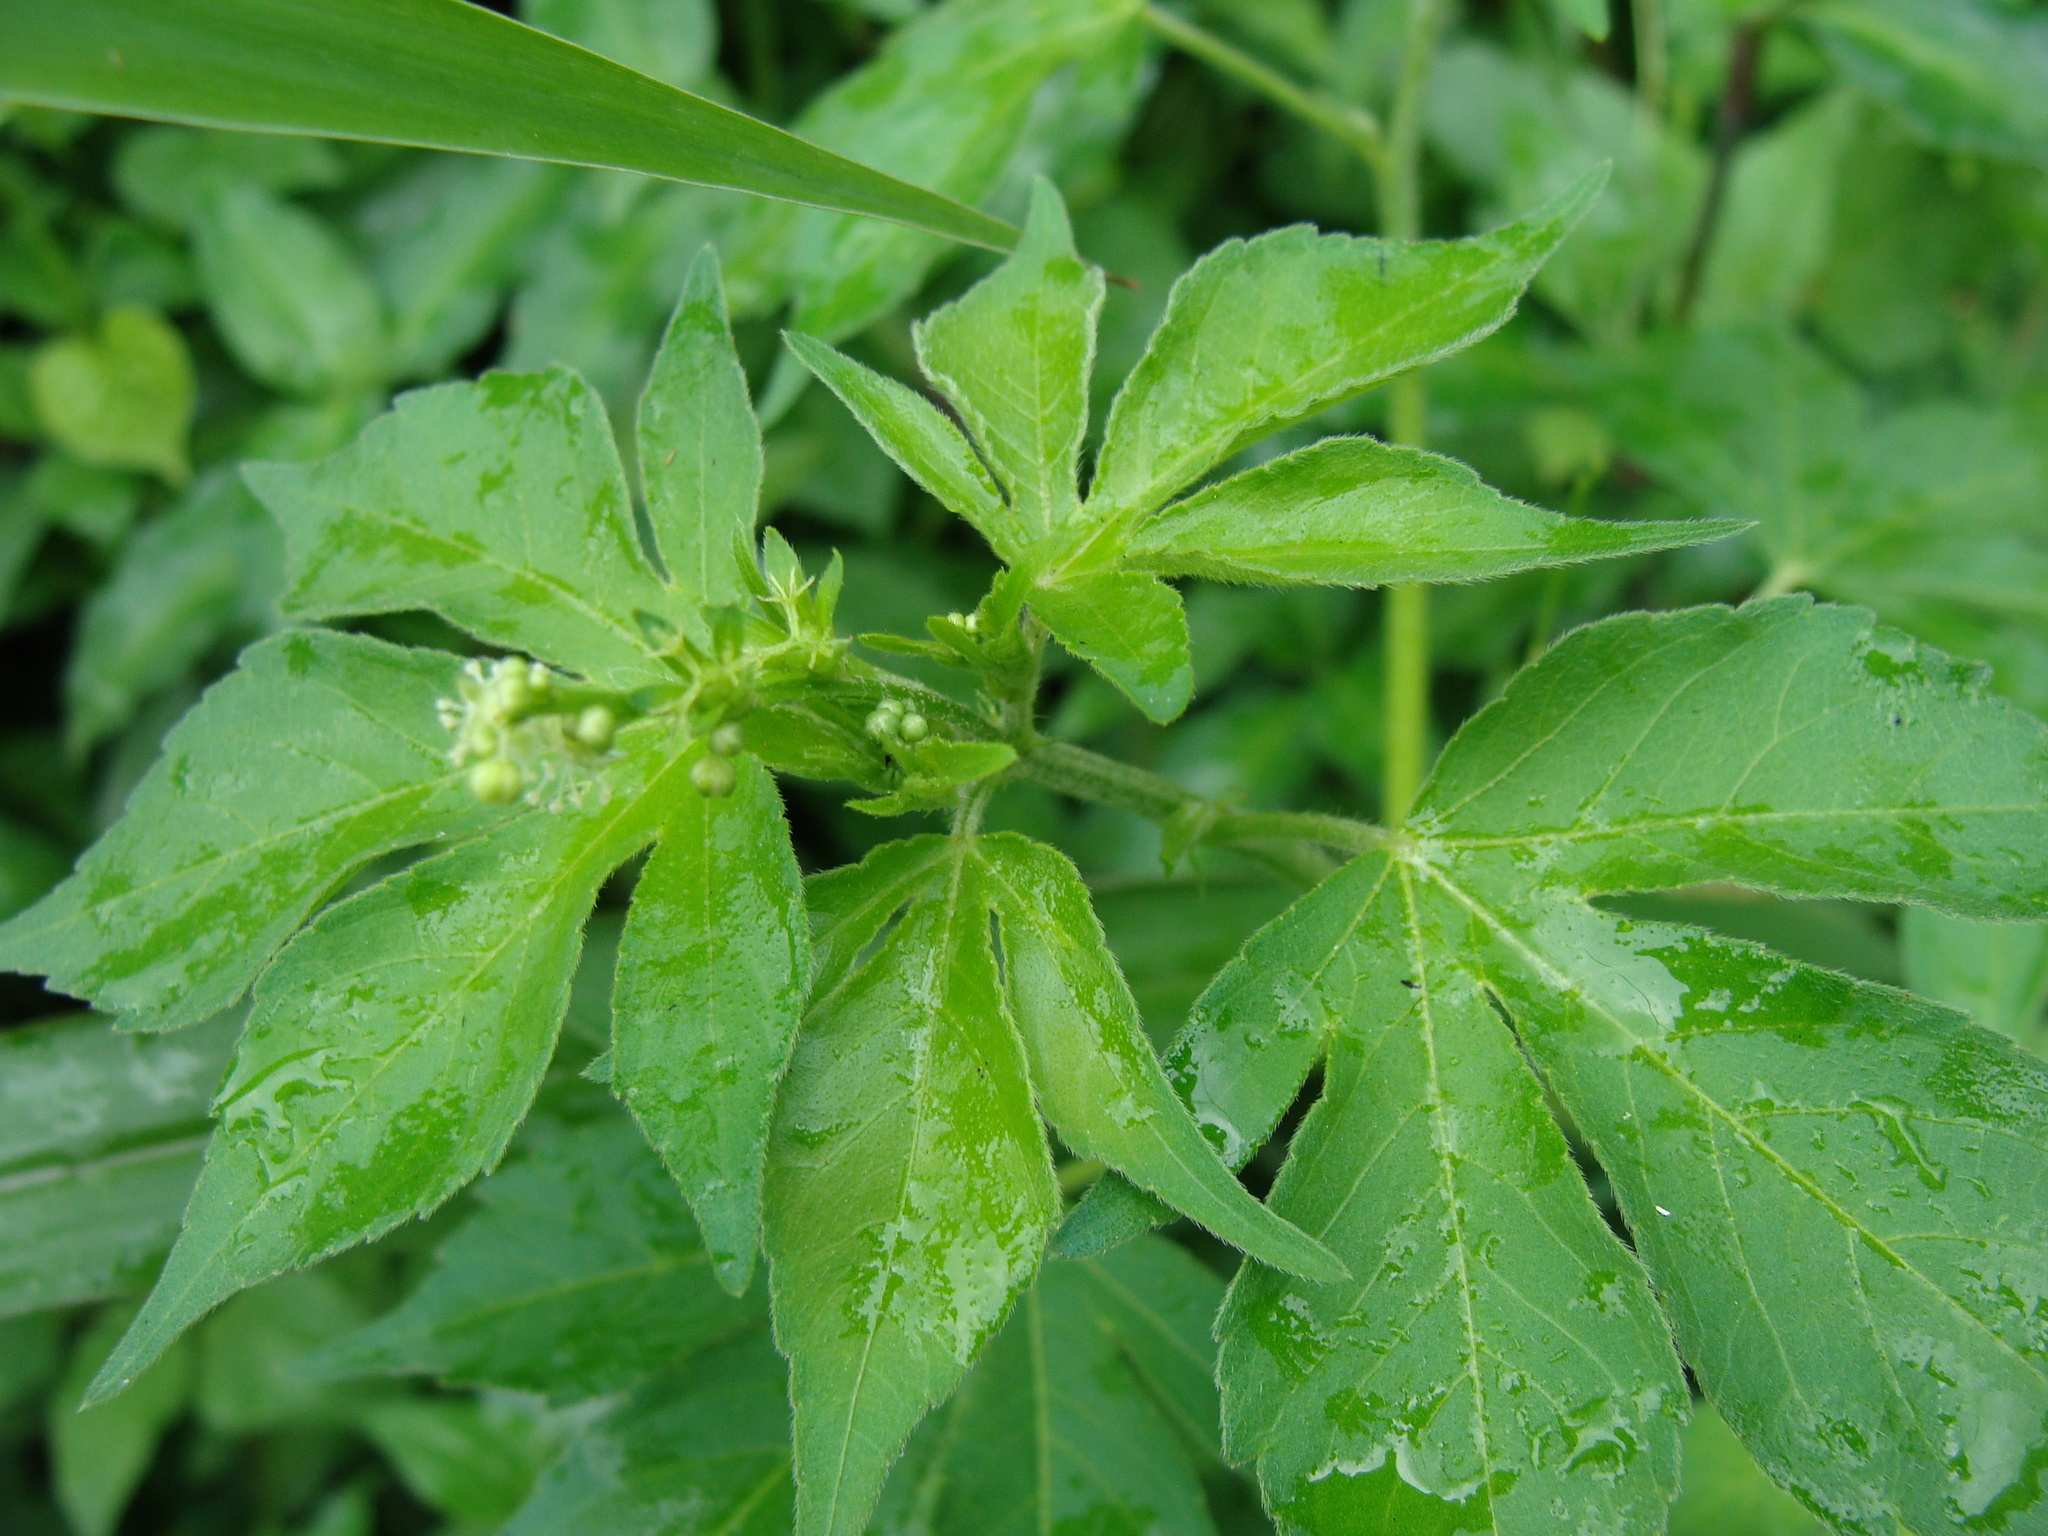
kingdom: Plantae
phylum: Tracheophyta
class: Magnoliopsida
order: Malpighiales
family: Euphorbiaceae
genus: Astraea
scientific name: Astraea lobata
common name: Lobed croton
